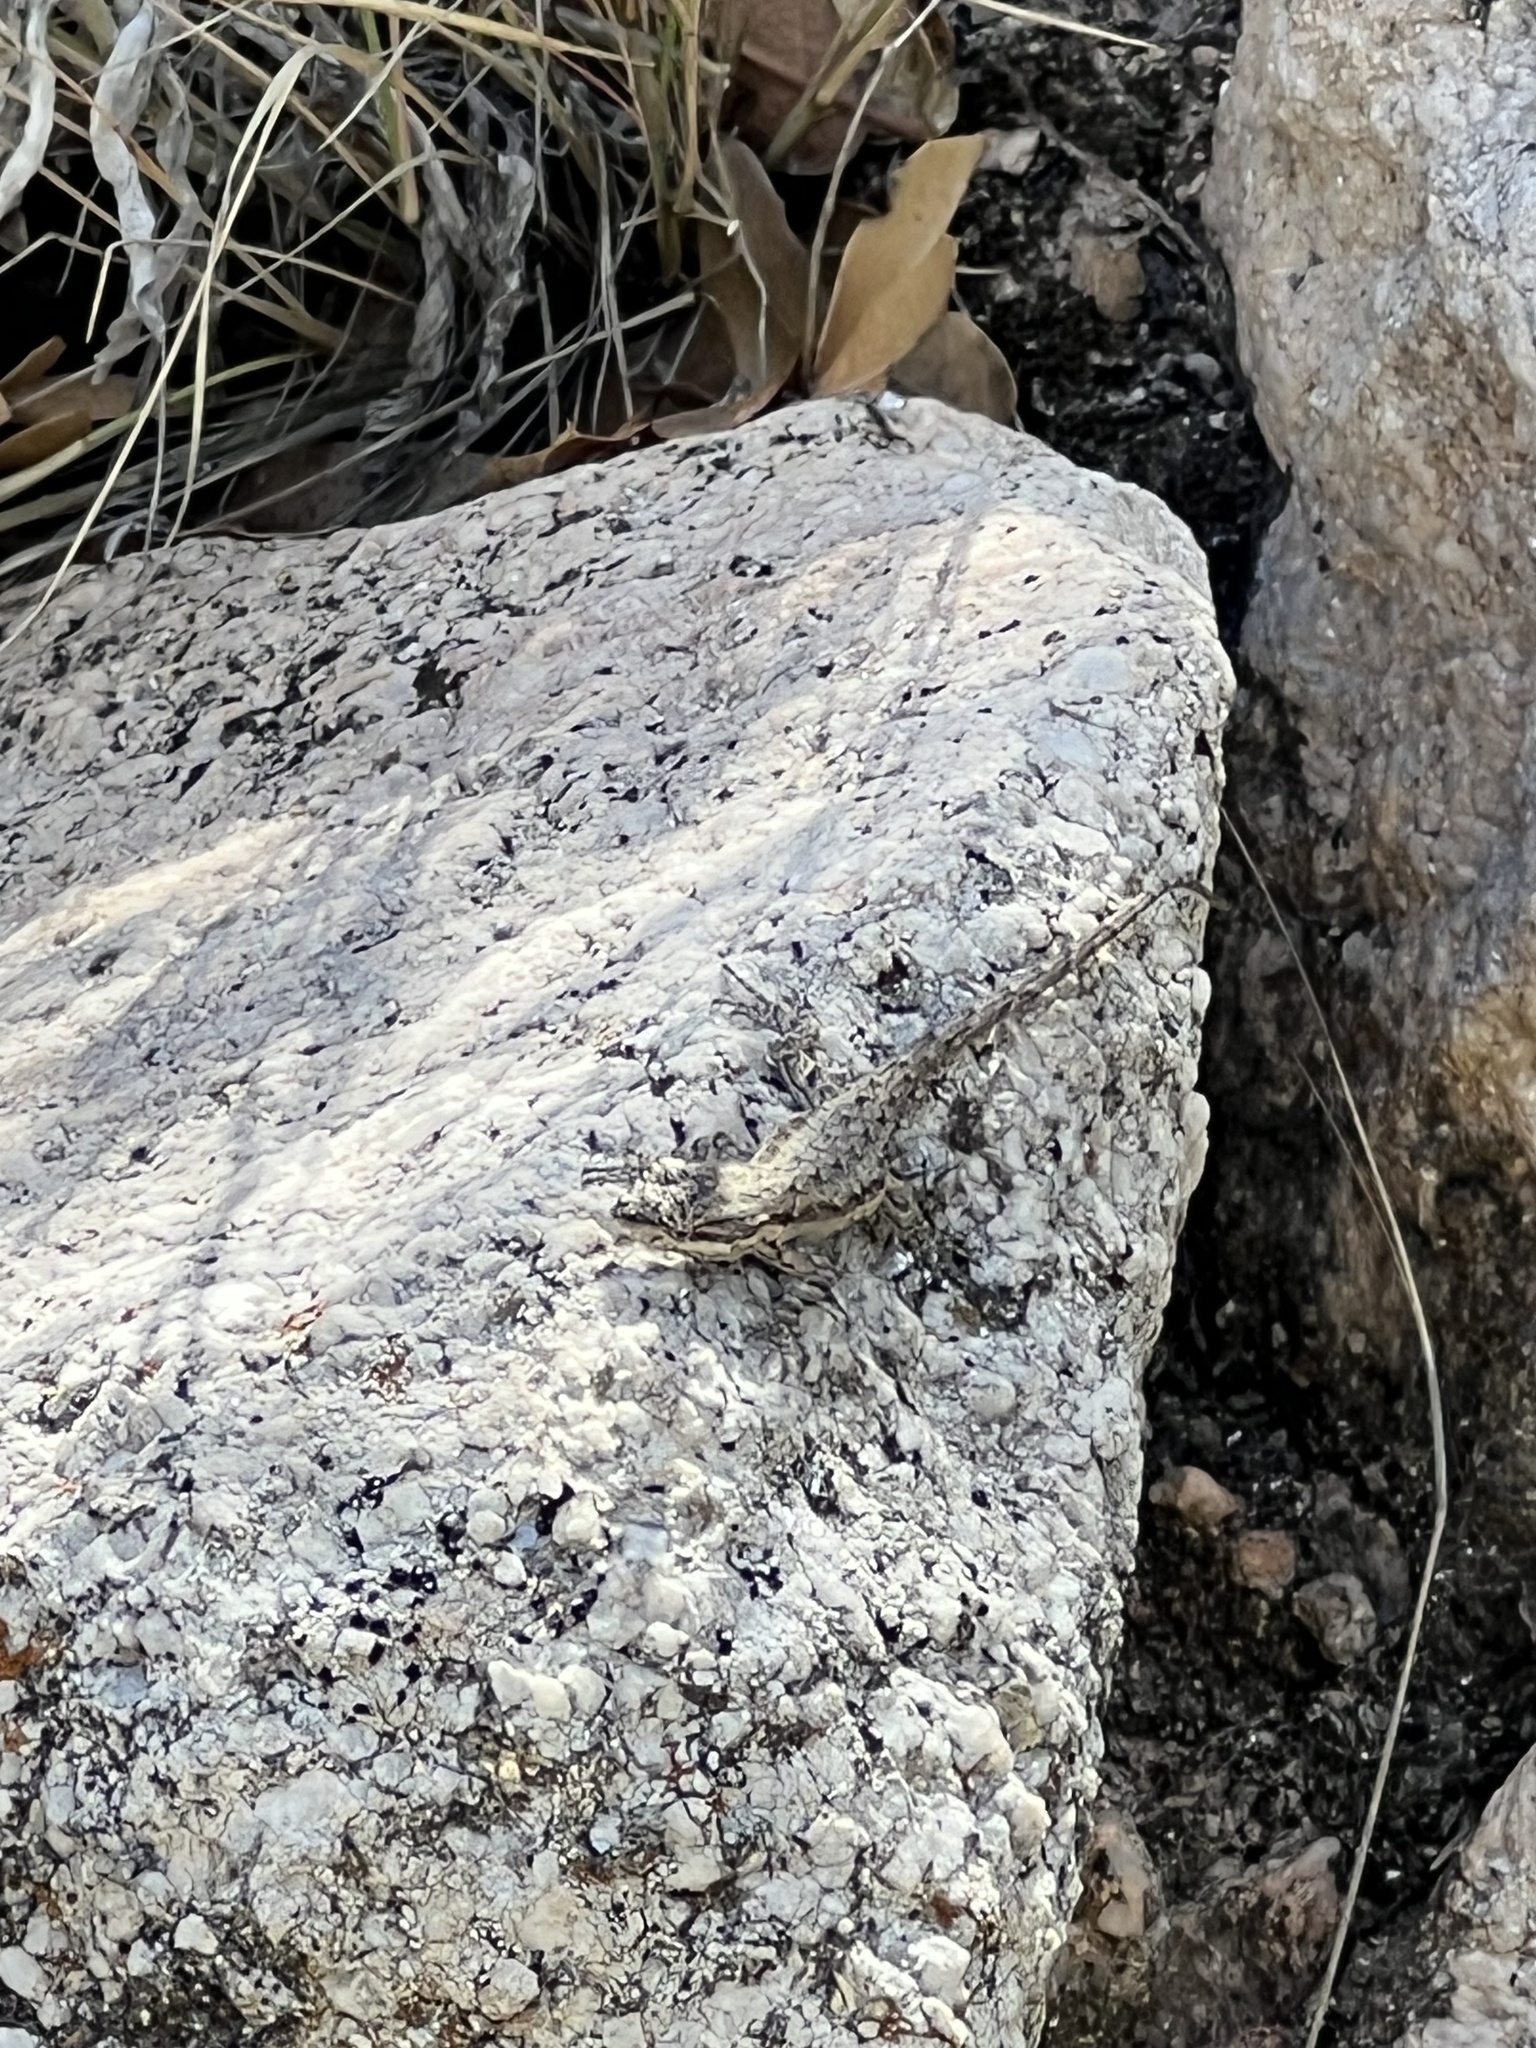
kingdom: Animalia
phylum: Chordata
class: Squamata
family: Phrynosomatidae
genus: Urosaurus
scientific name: Urosaurus ornatus
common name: Ornate tree lizard
